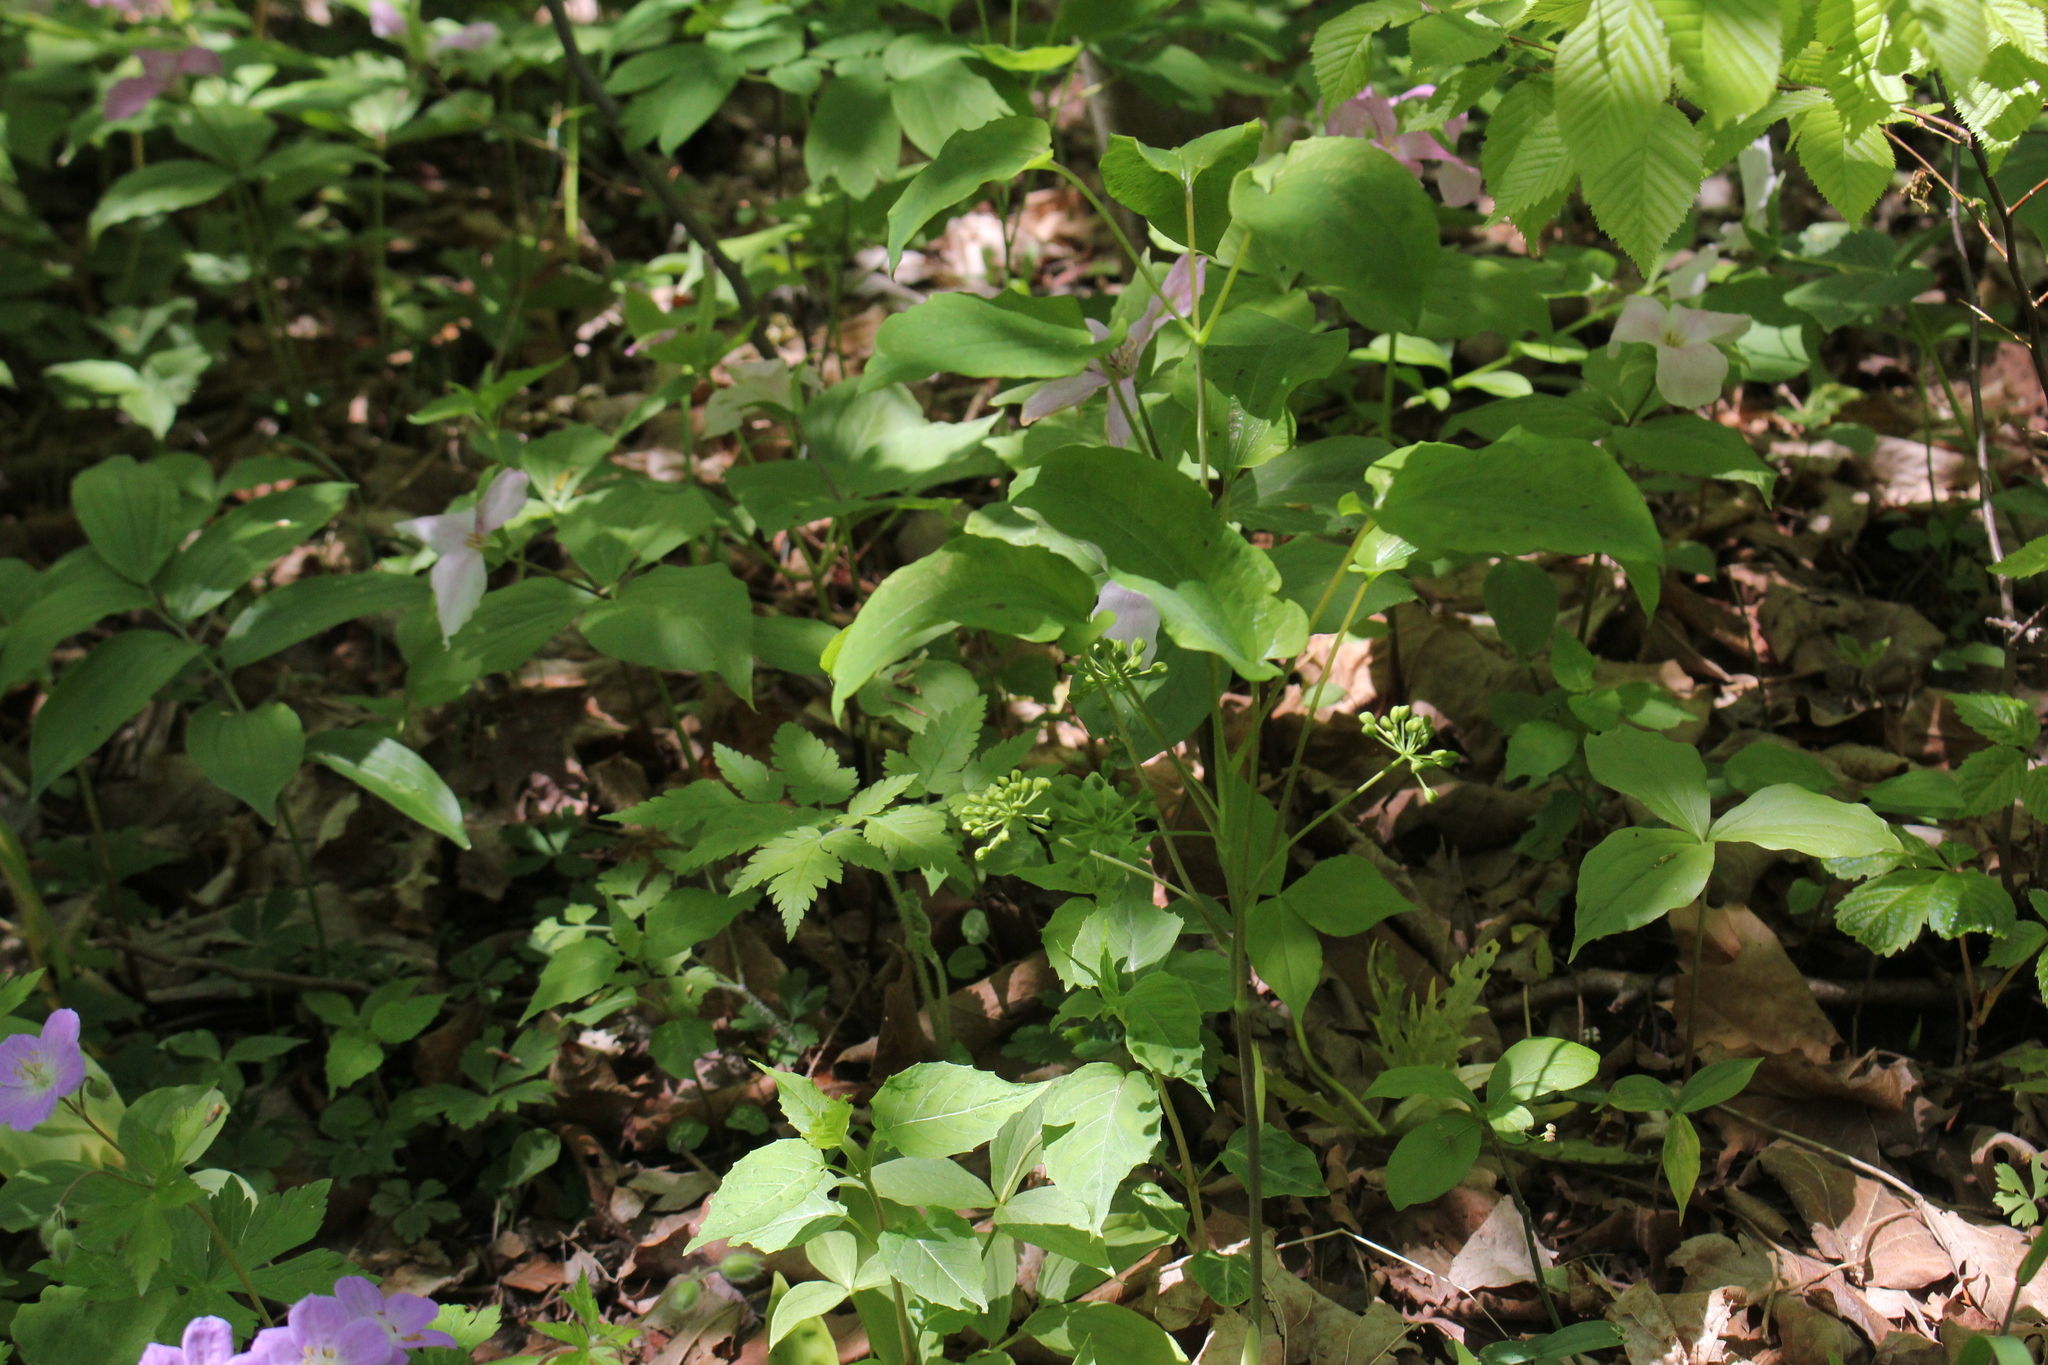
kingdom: Plantae
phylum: Tracheophyta
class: Liliopsida
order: Liliales
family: Smilacaceae
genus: Smilax
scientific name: Smilax lasioneura
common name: Blue ridge carrionflower
